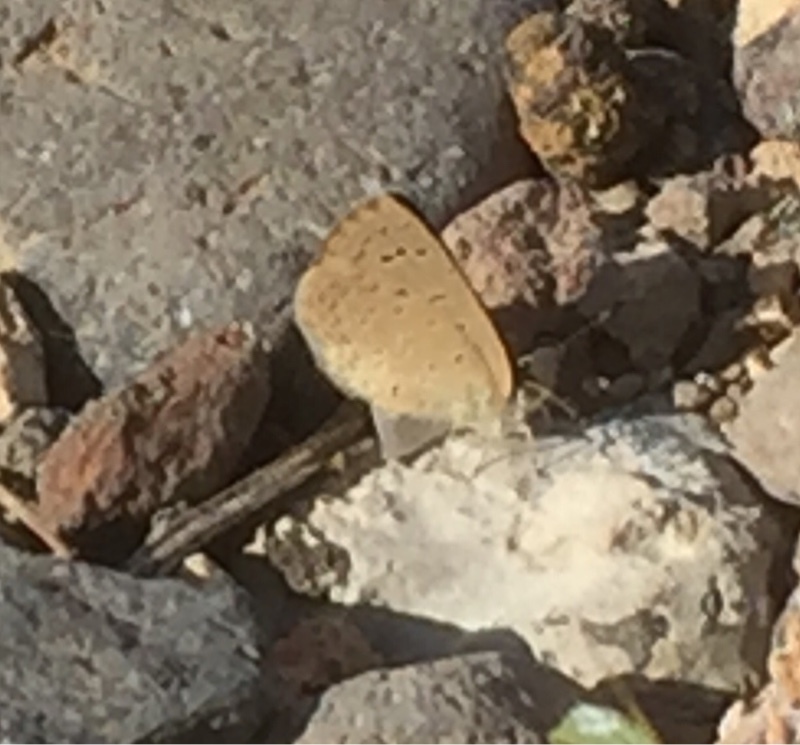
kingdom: Animalia
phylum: Arthropoda
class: Insecta
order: Lepidoptera
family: Lycaenidae
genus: Zizeeria
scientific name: Zizeeria knysna
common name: African grass blue
